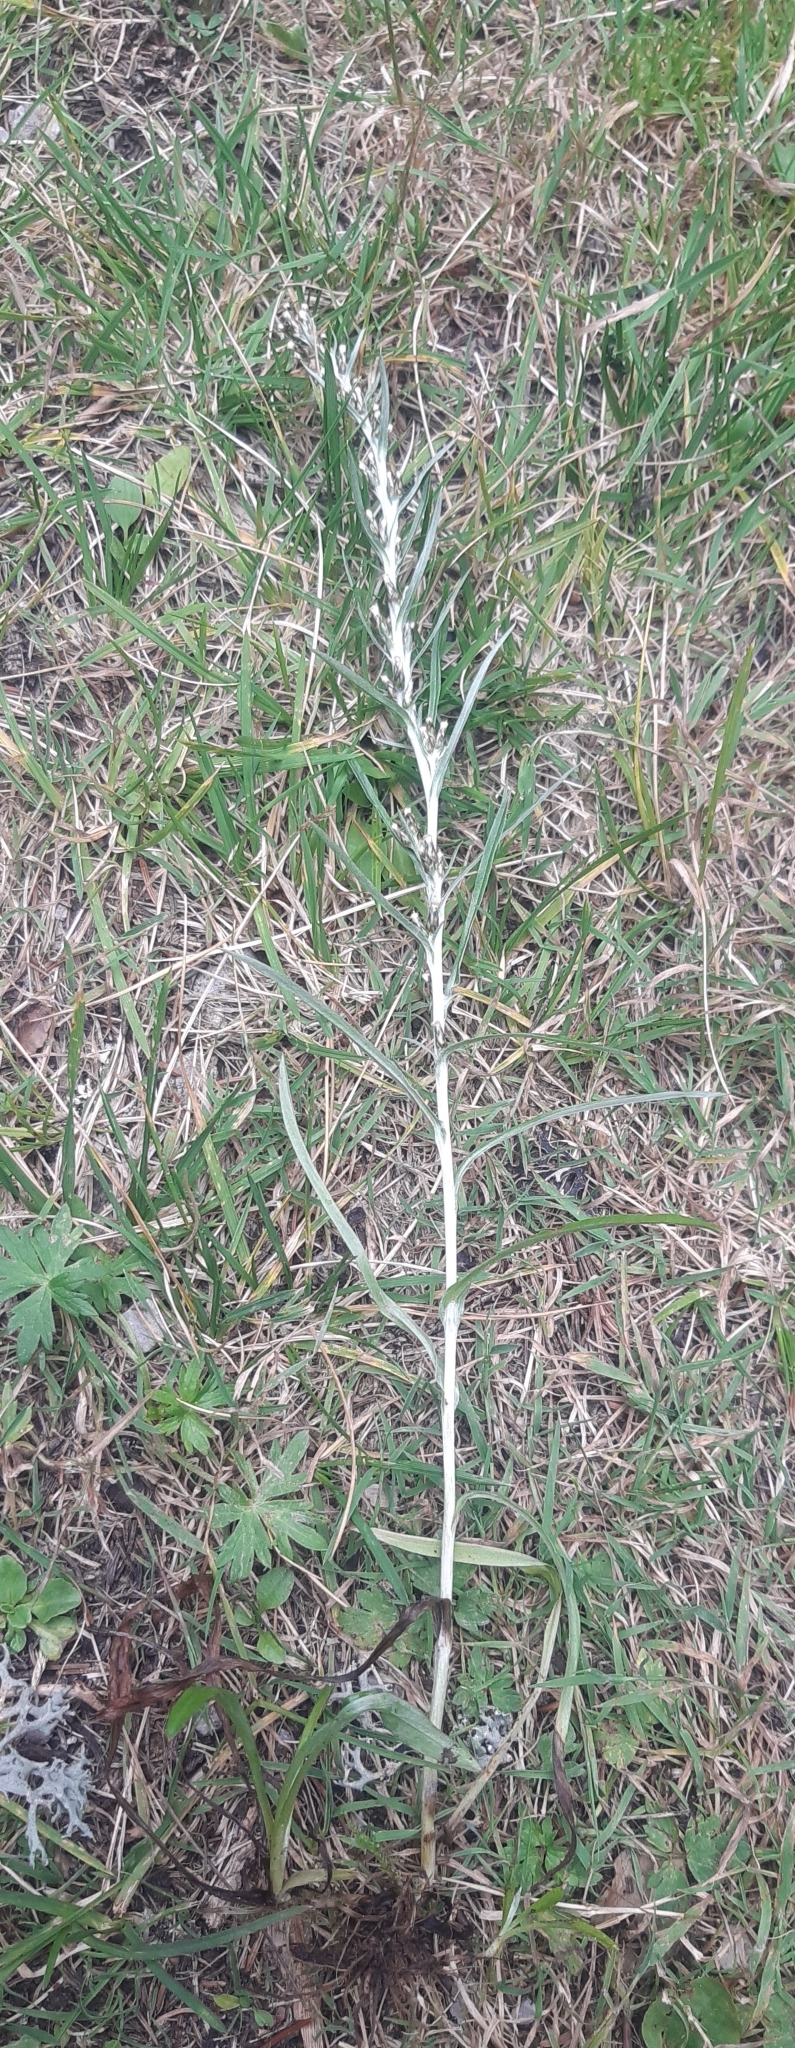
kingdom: Plantae
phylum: Tracheophyta
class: Magnoliopsida
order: Asterales
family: Asteraceae
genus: Omalotheca
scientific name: Omalotheca sylvatica
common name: Heath cudweed
